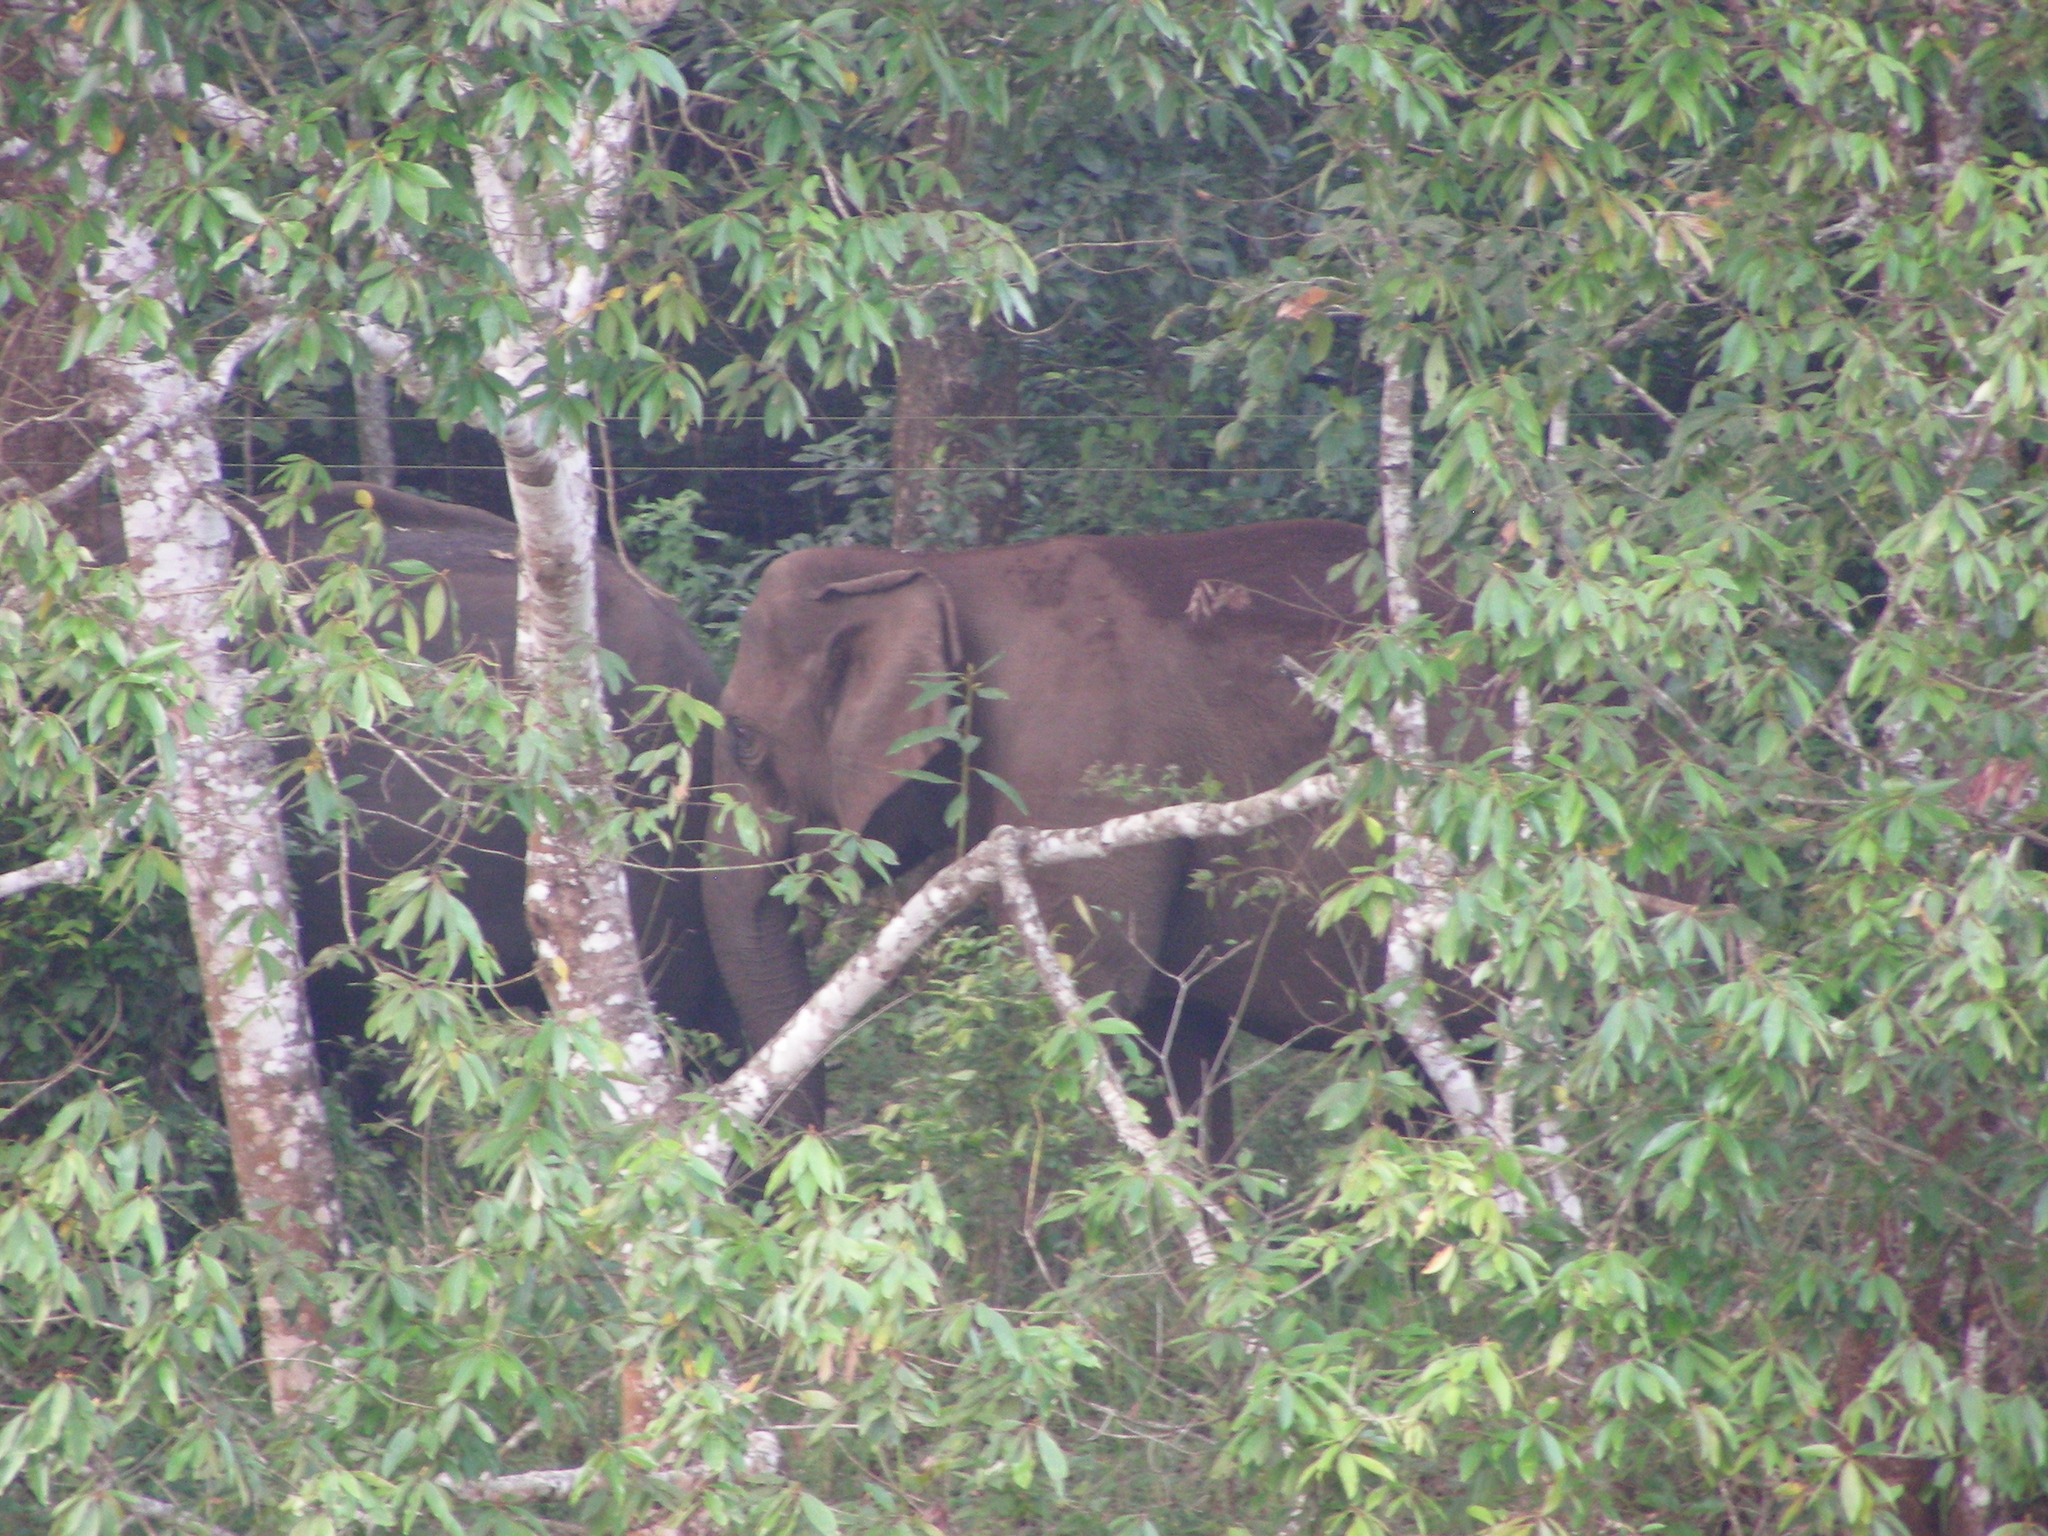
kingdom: Animalia
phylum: Chordata
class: Mammalia
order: Proboscidea
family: Elephantidae
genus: Elephas
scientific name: Elephas maximus
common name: Asian elephant
